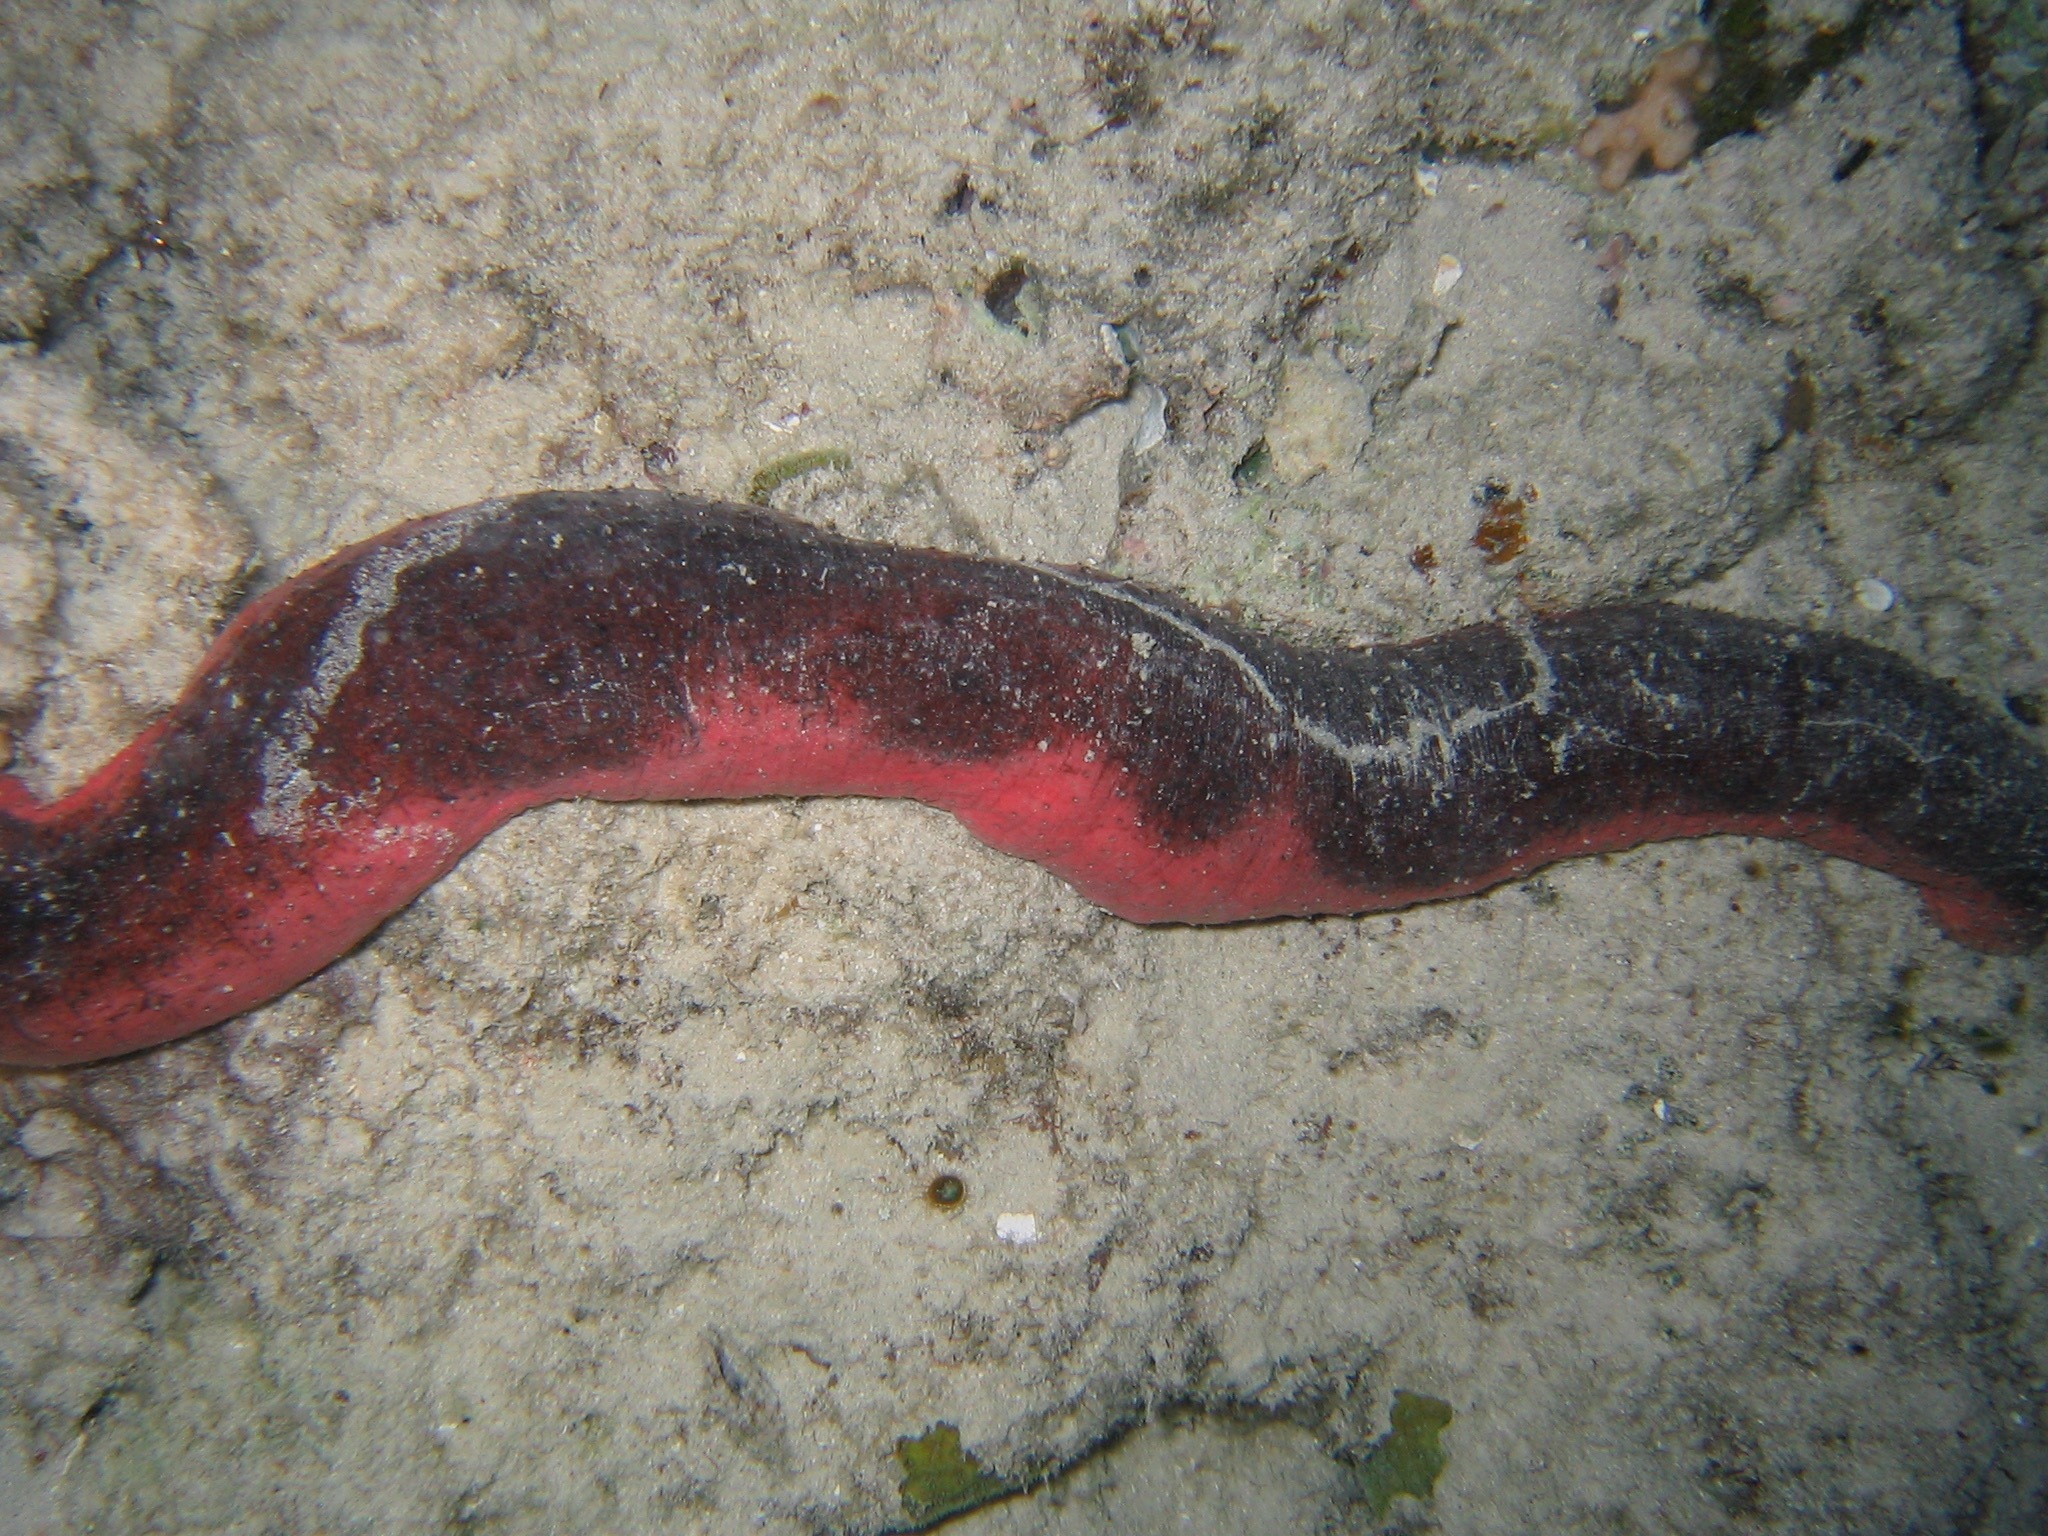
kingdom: Animalia
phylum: Echinodermata
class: Holothuroidea
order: Holothuriida
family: Holothuriidae
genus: Holothuria
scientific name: Holothuria edulis
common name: Pinkfish
